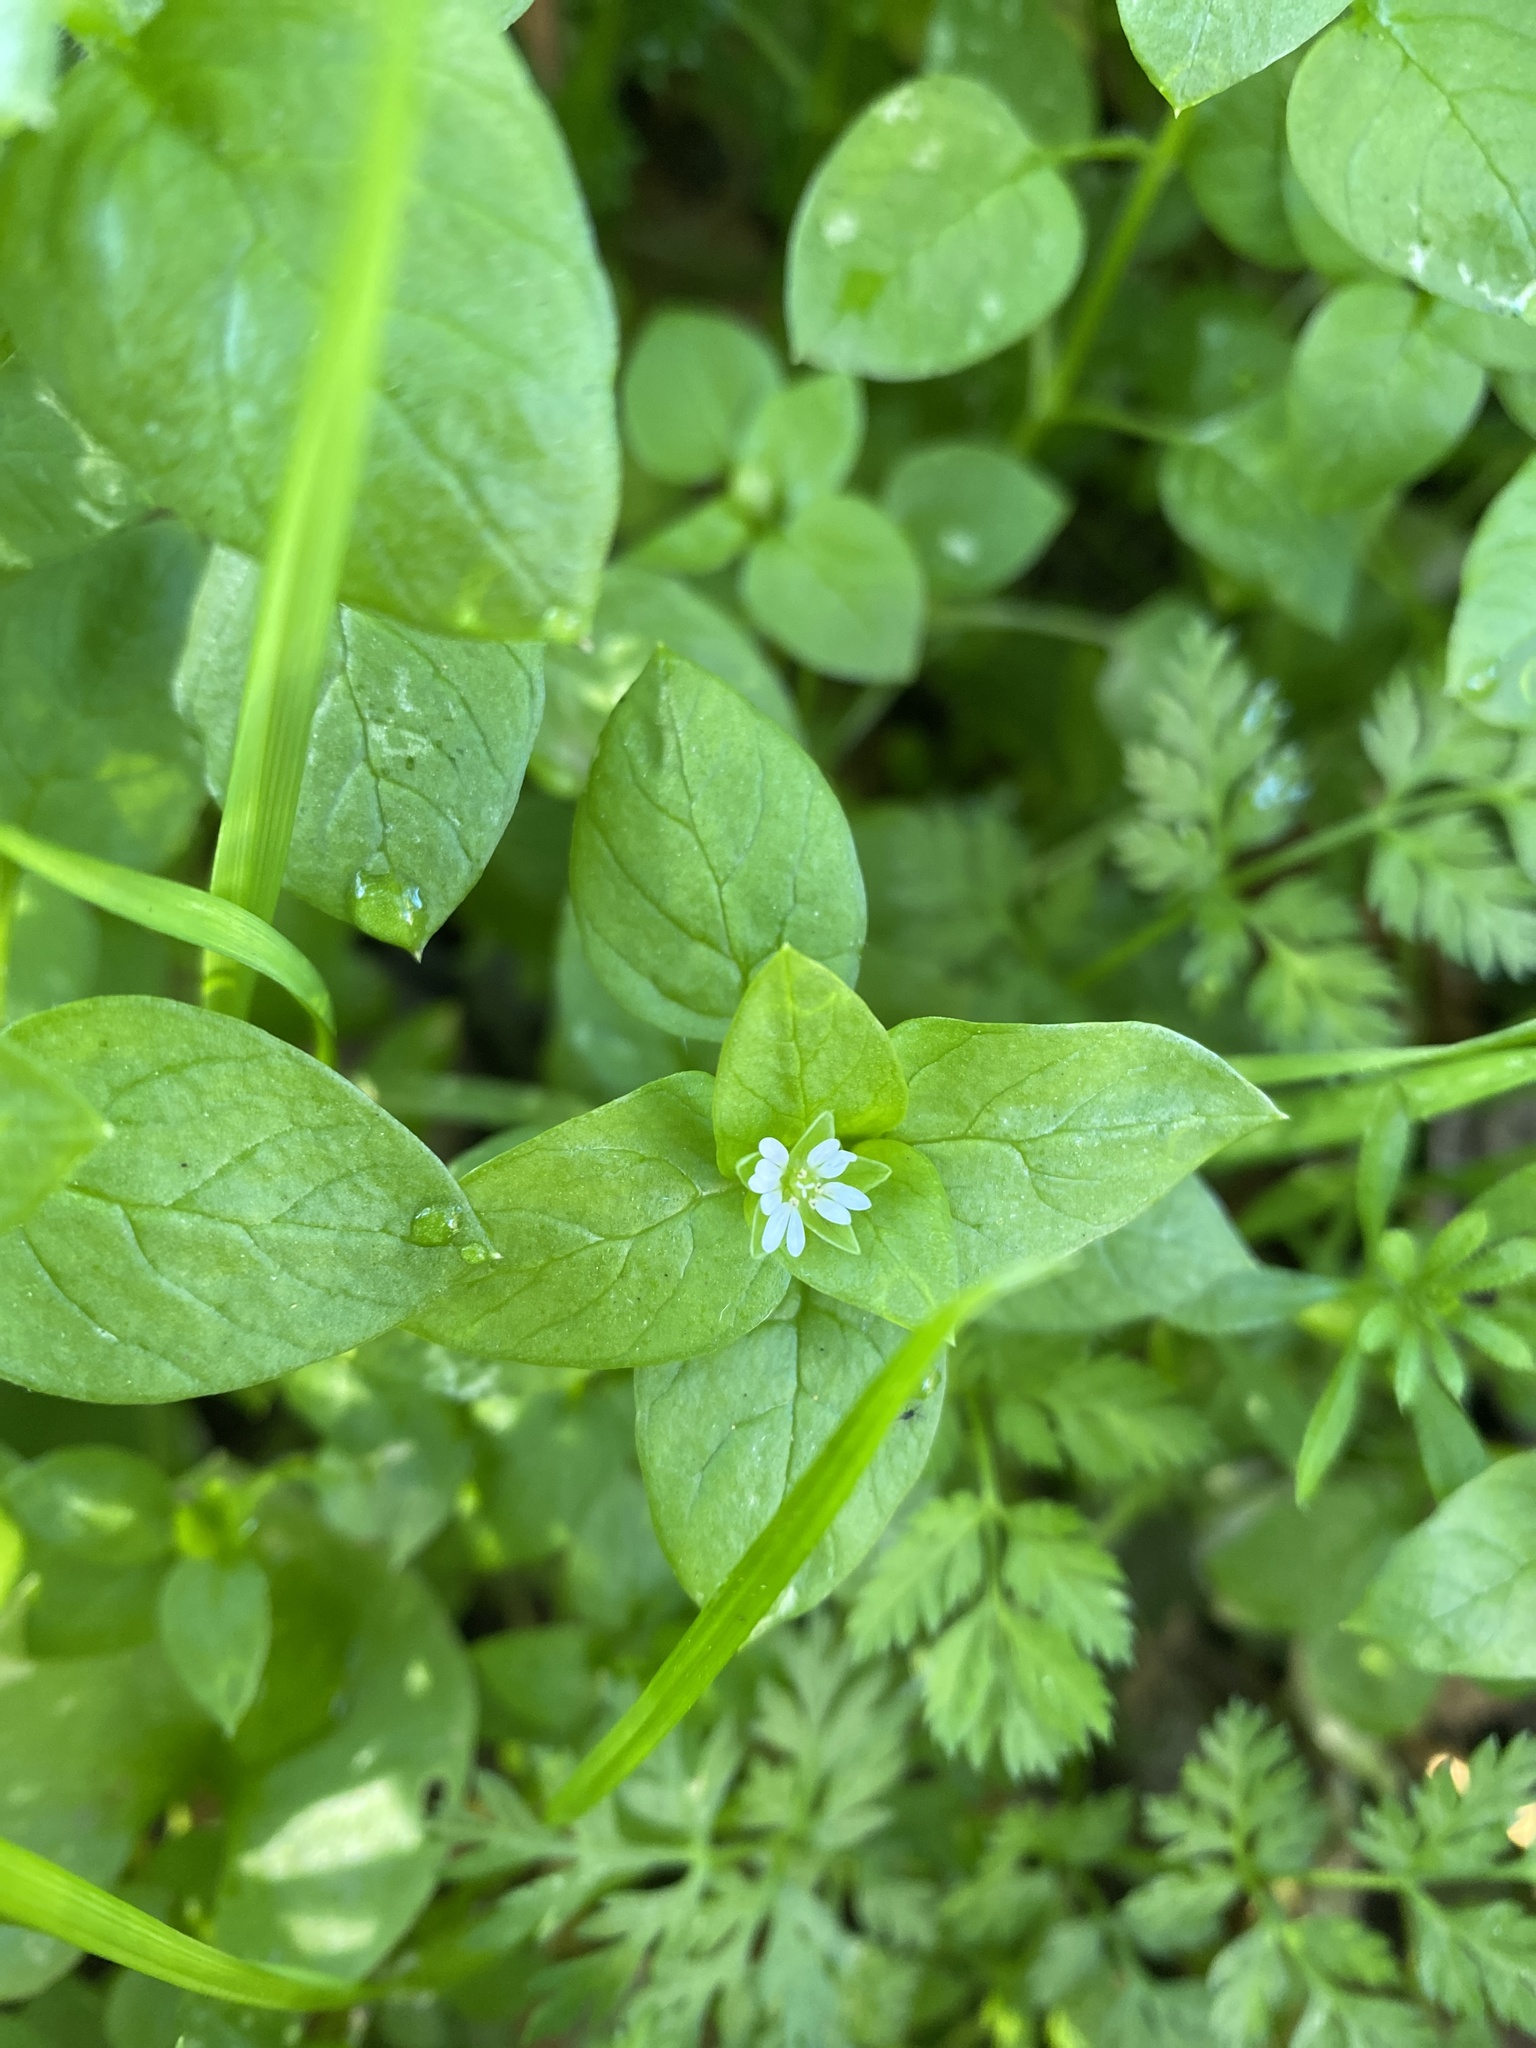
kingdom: Plantae
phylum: Tracheophyta
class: Magnoliopsida
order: Caryophyllales
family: Caryophyllaceae
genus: Stellaria
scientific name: Stellaria media
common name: Common chickweed
